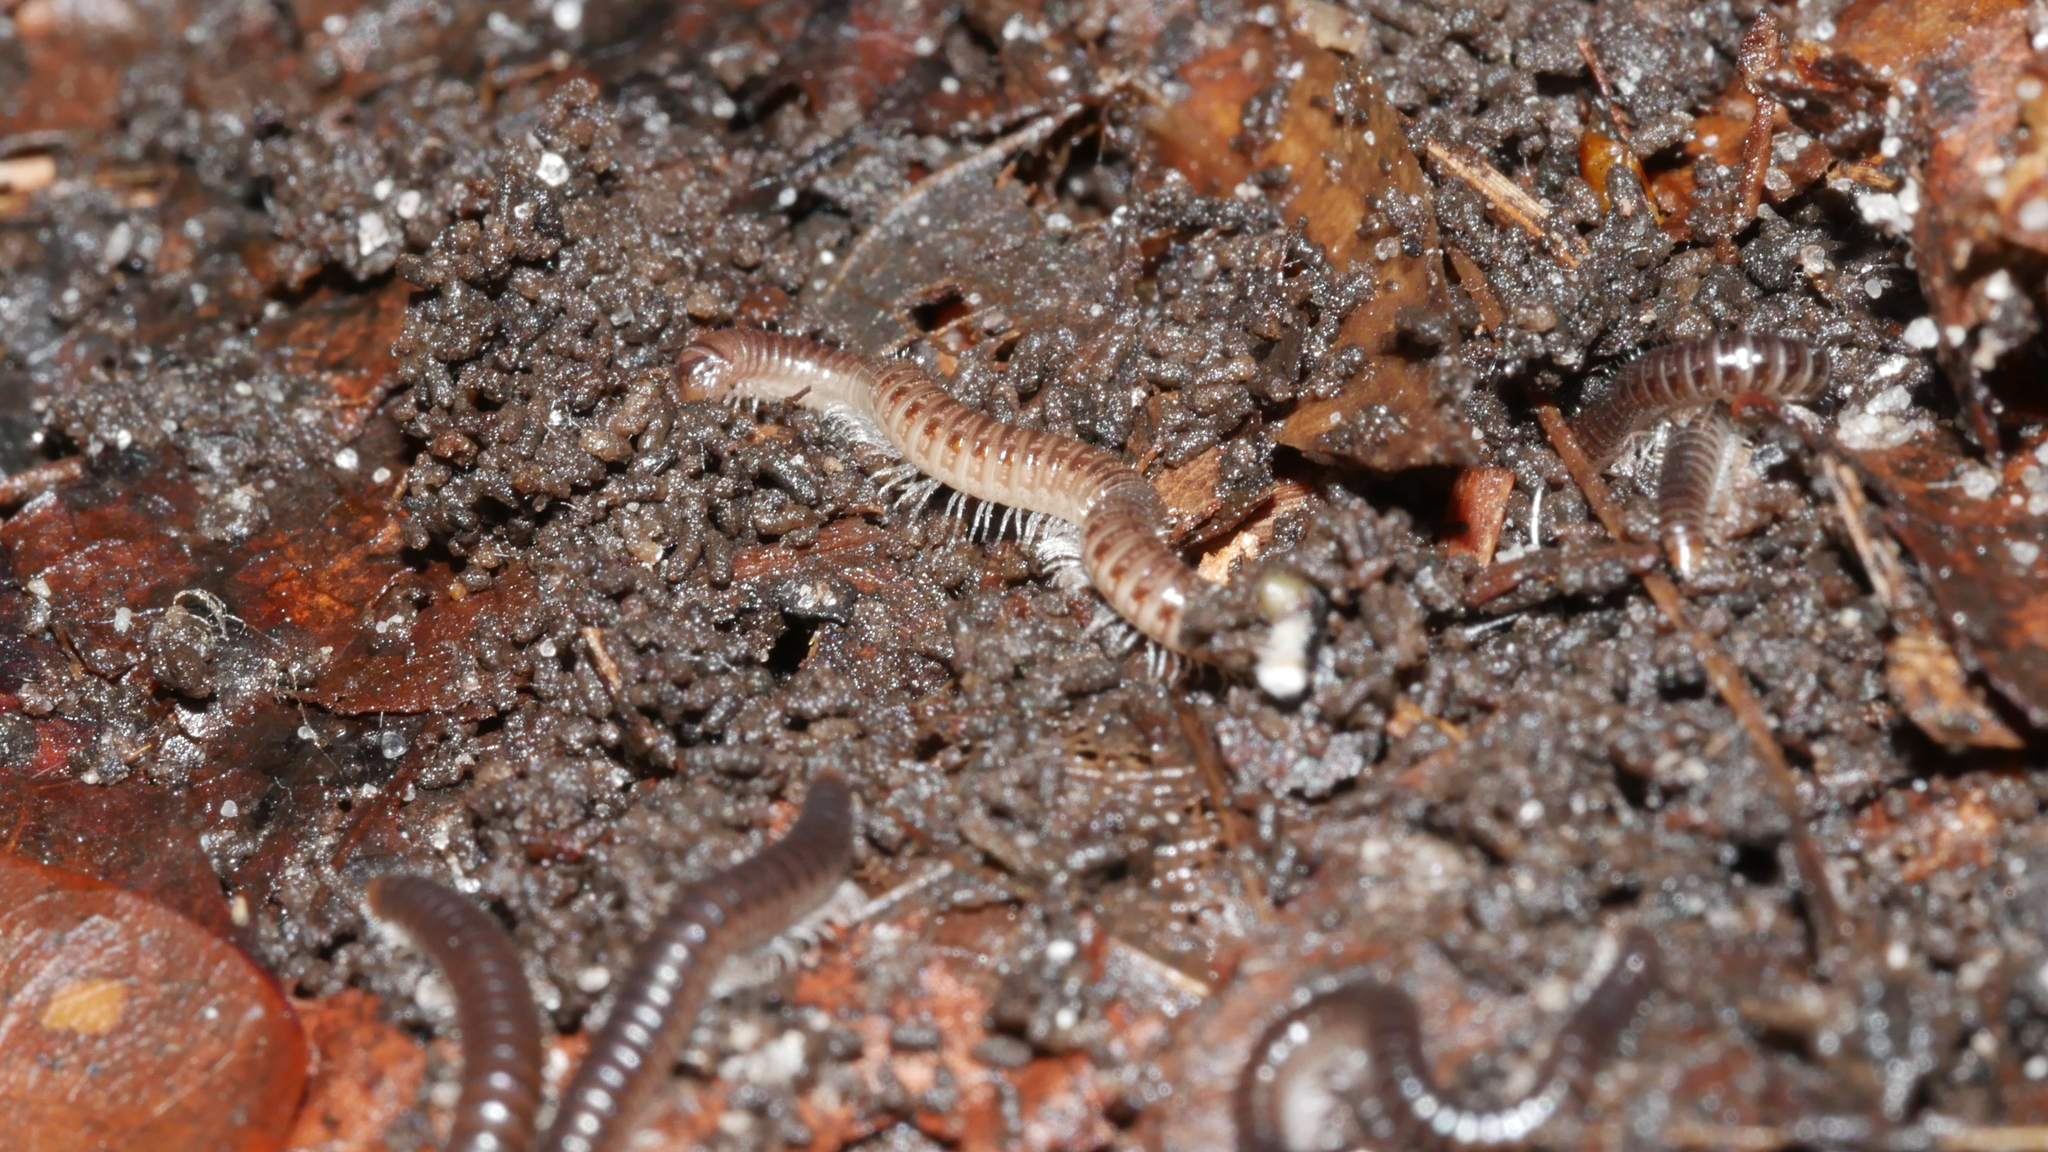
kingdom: Animalia
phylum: Arthropoda
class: Diplopoda
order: Julida
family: Julidae
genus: Ophyiulus
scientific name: Ophyiulus pilosus
